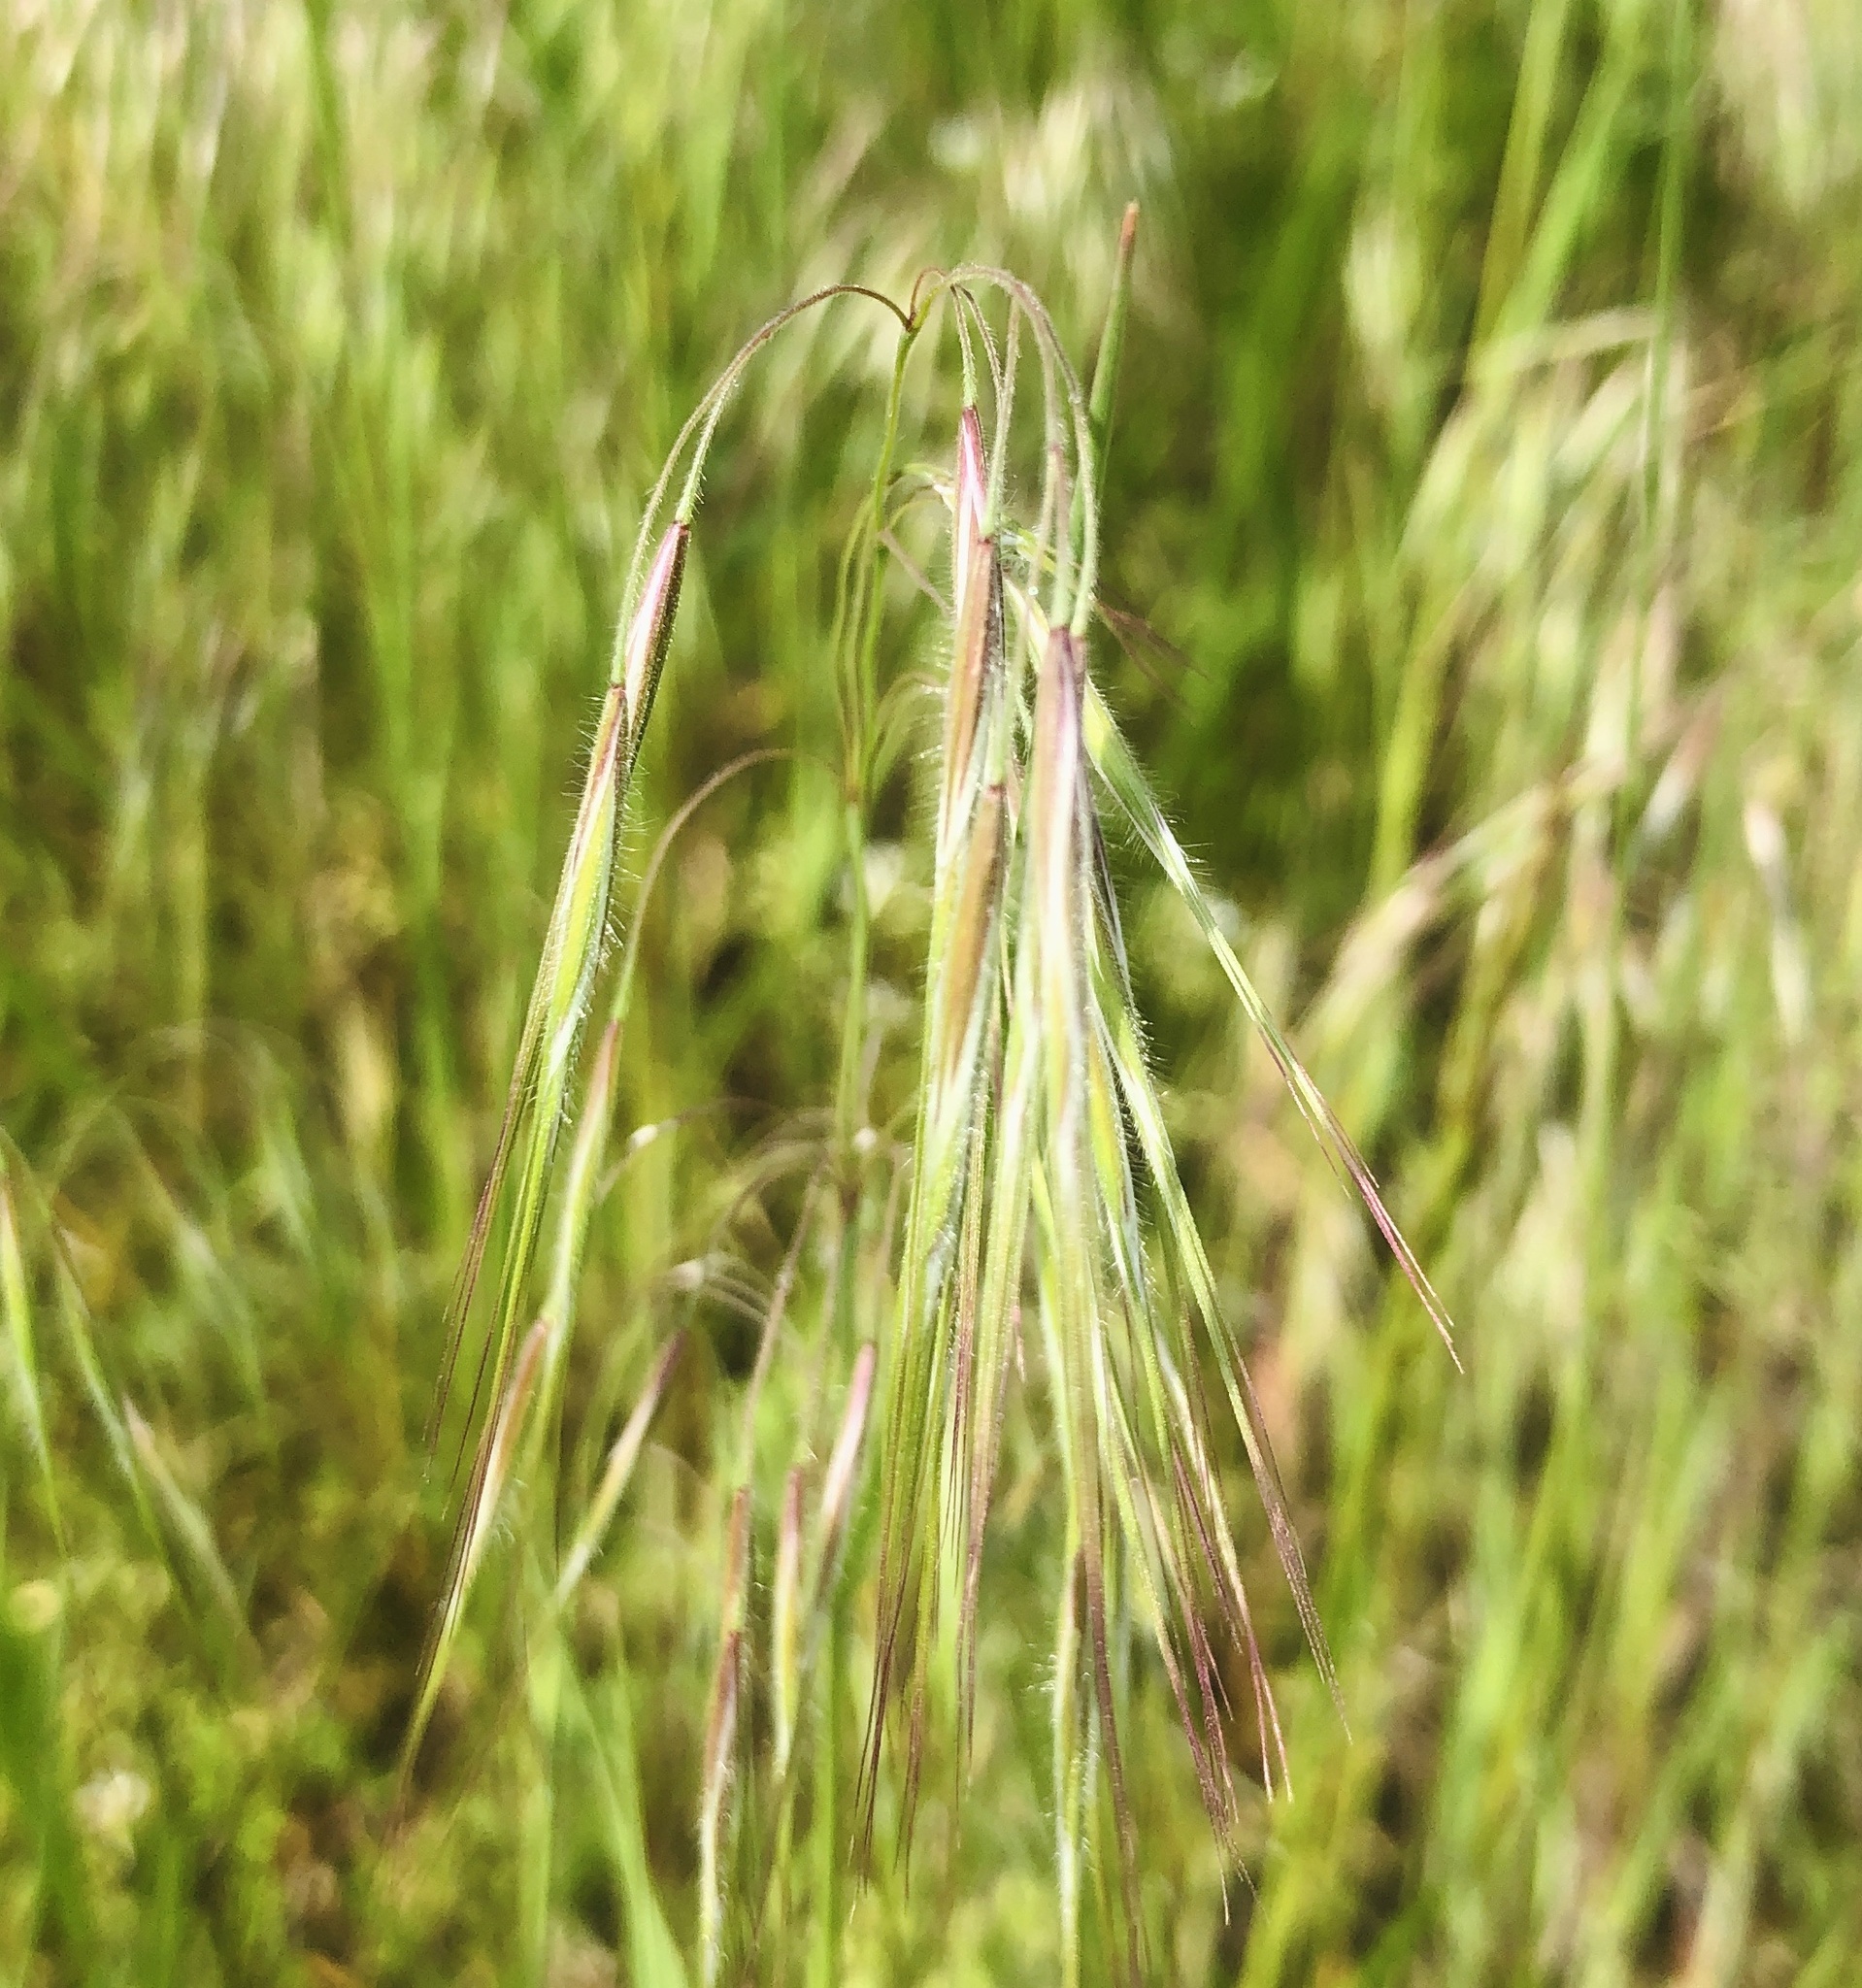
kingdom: Plantae
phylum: Tracheophyta
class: Liliopsida
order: Poales
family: Poaceae
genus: Bromus
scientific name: Bromus tectorum
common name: Cheatgrass
